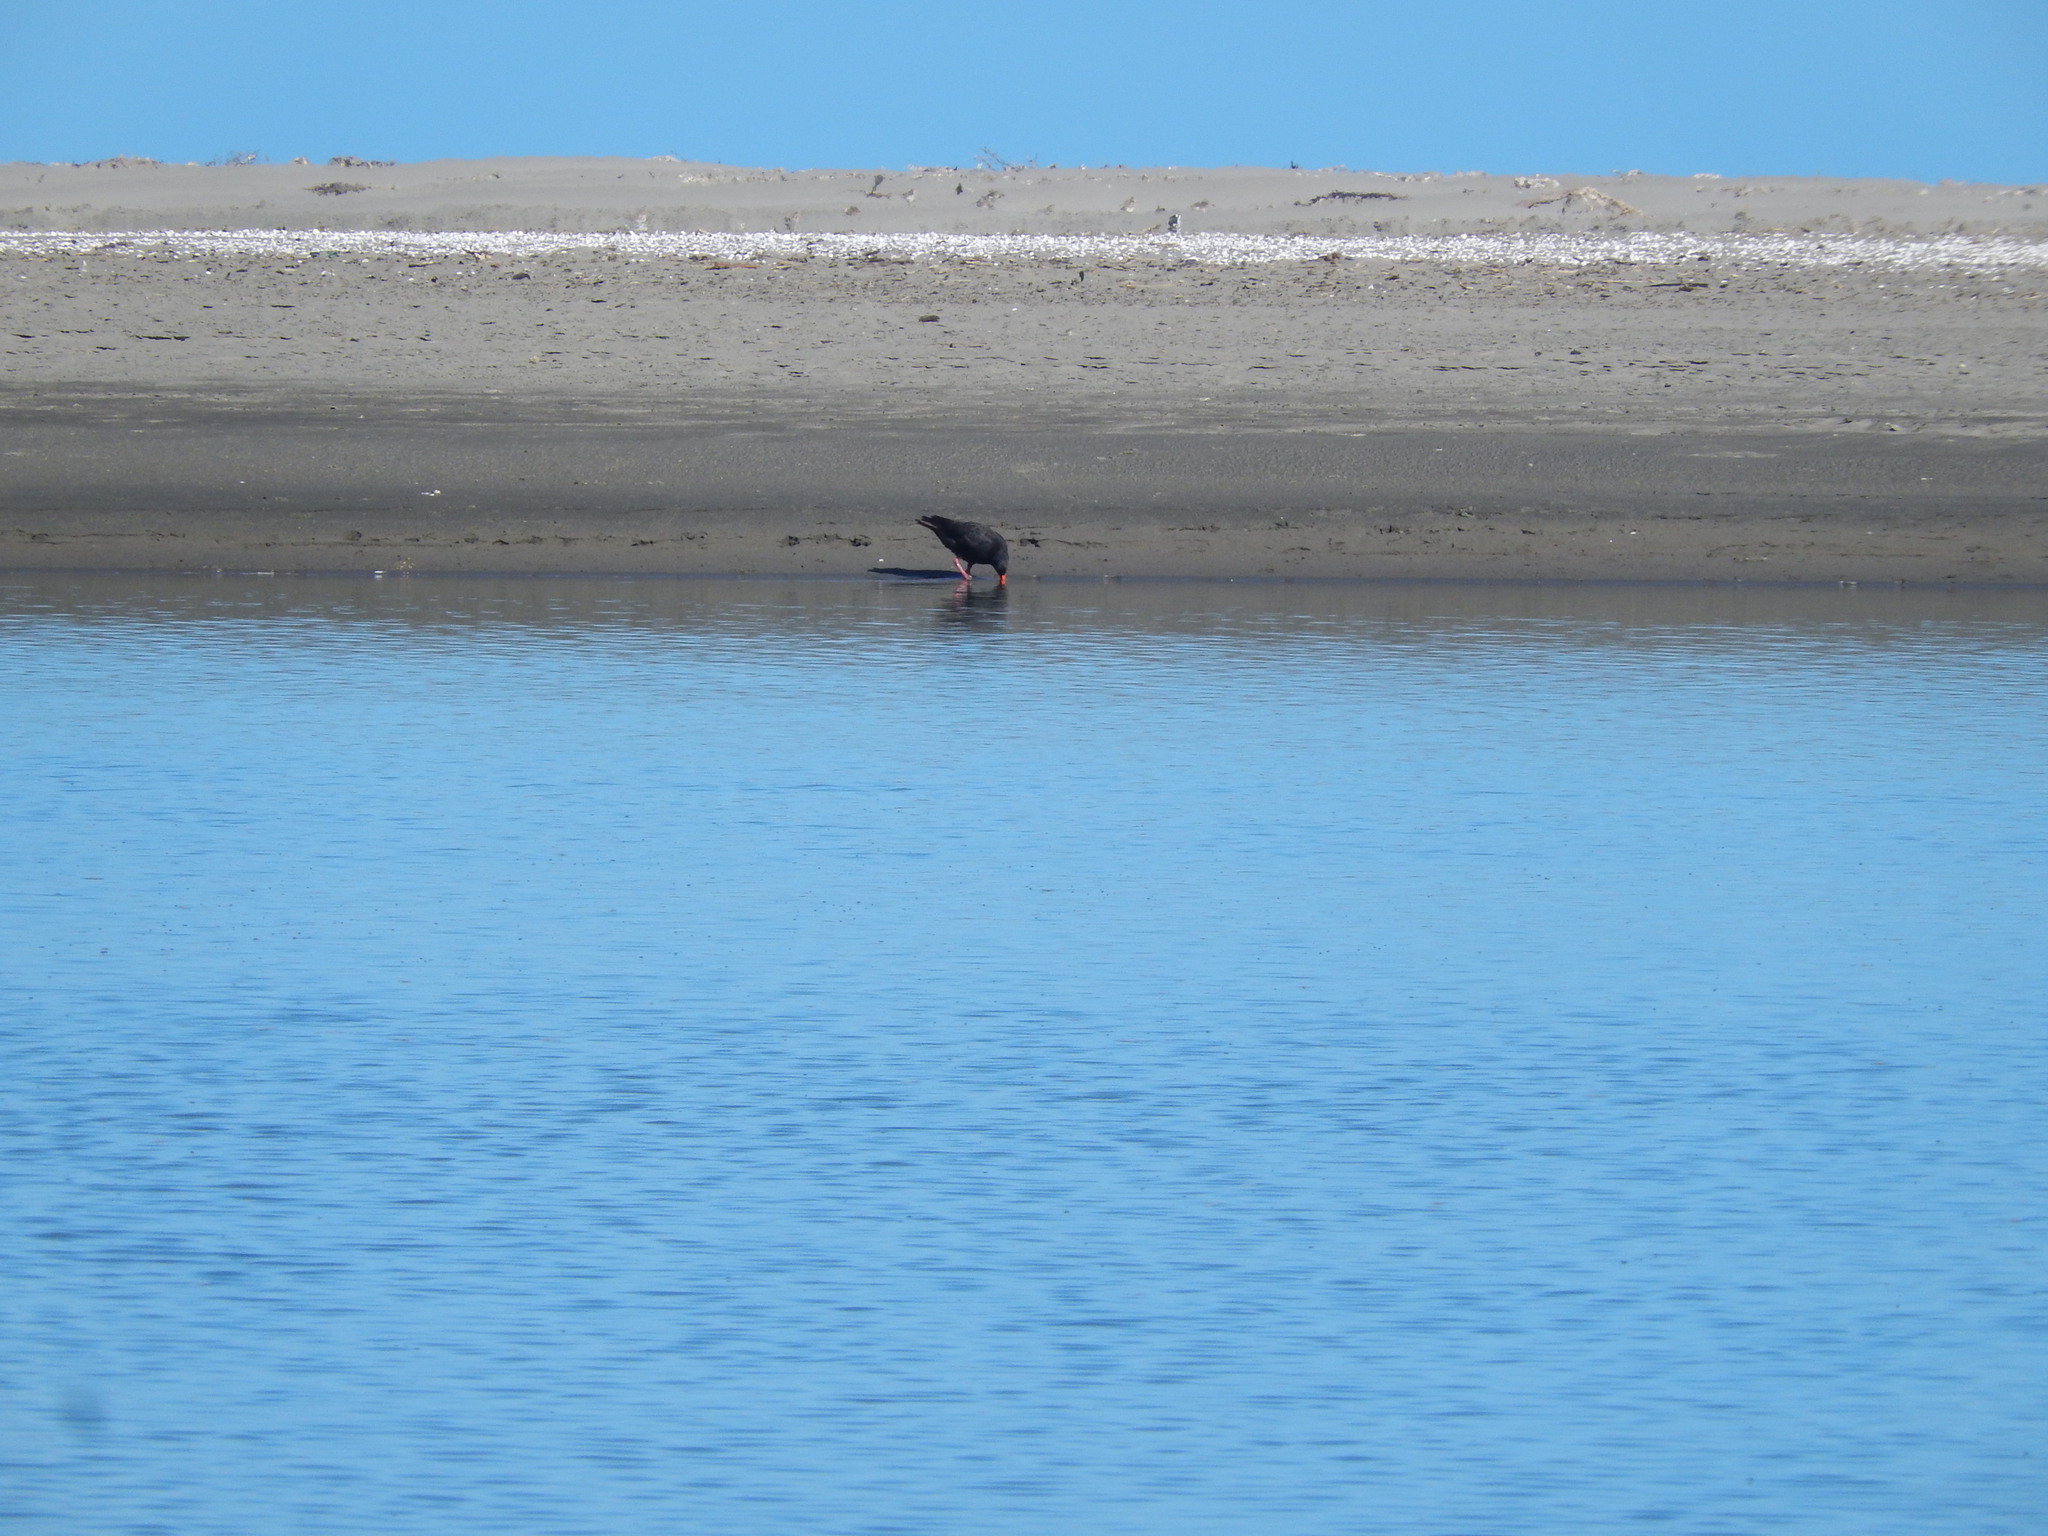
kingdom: Animalia
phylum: Chordata
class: Aves
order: Charadriiformes
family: Haematopodidae
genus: Haematopus
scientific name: Haematopus unicolor
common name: Variable oystercatcher
